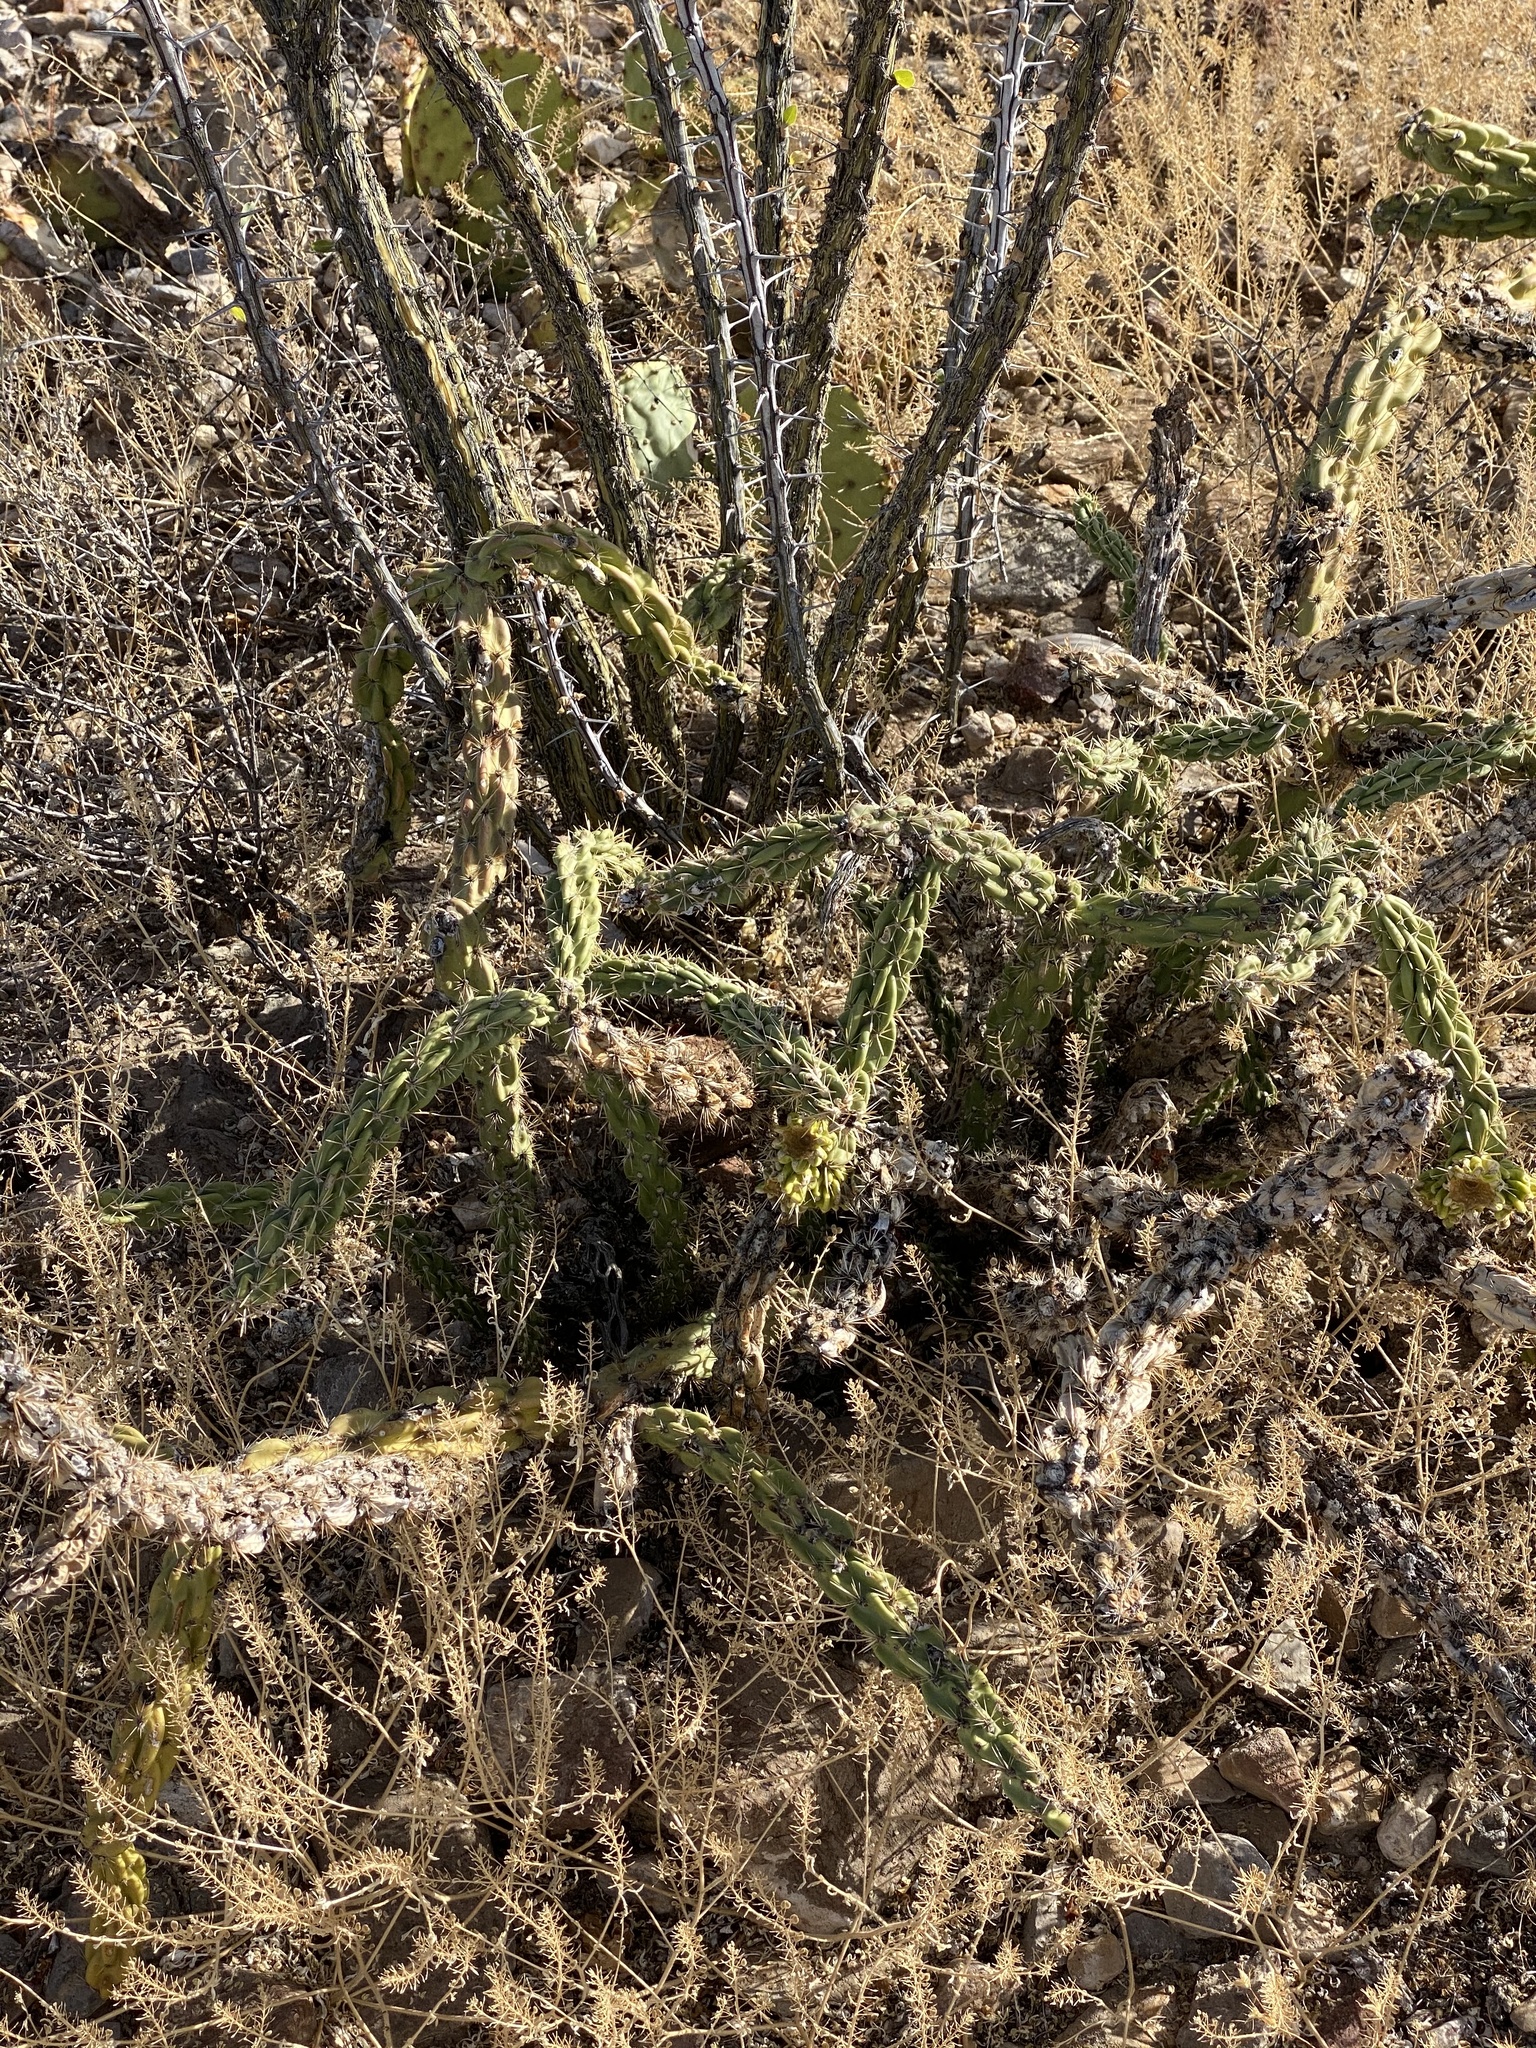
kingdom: Plantae
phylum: Tracheophyta
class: Magnoliopsida
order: Caryophyllales
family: Cactaceae
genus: Cylindropuntia
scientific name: Cylindropuntia imbricata
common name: Candelabrum cactus
